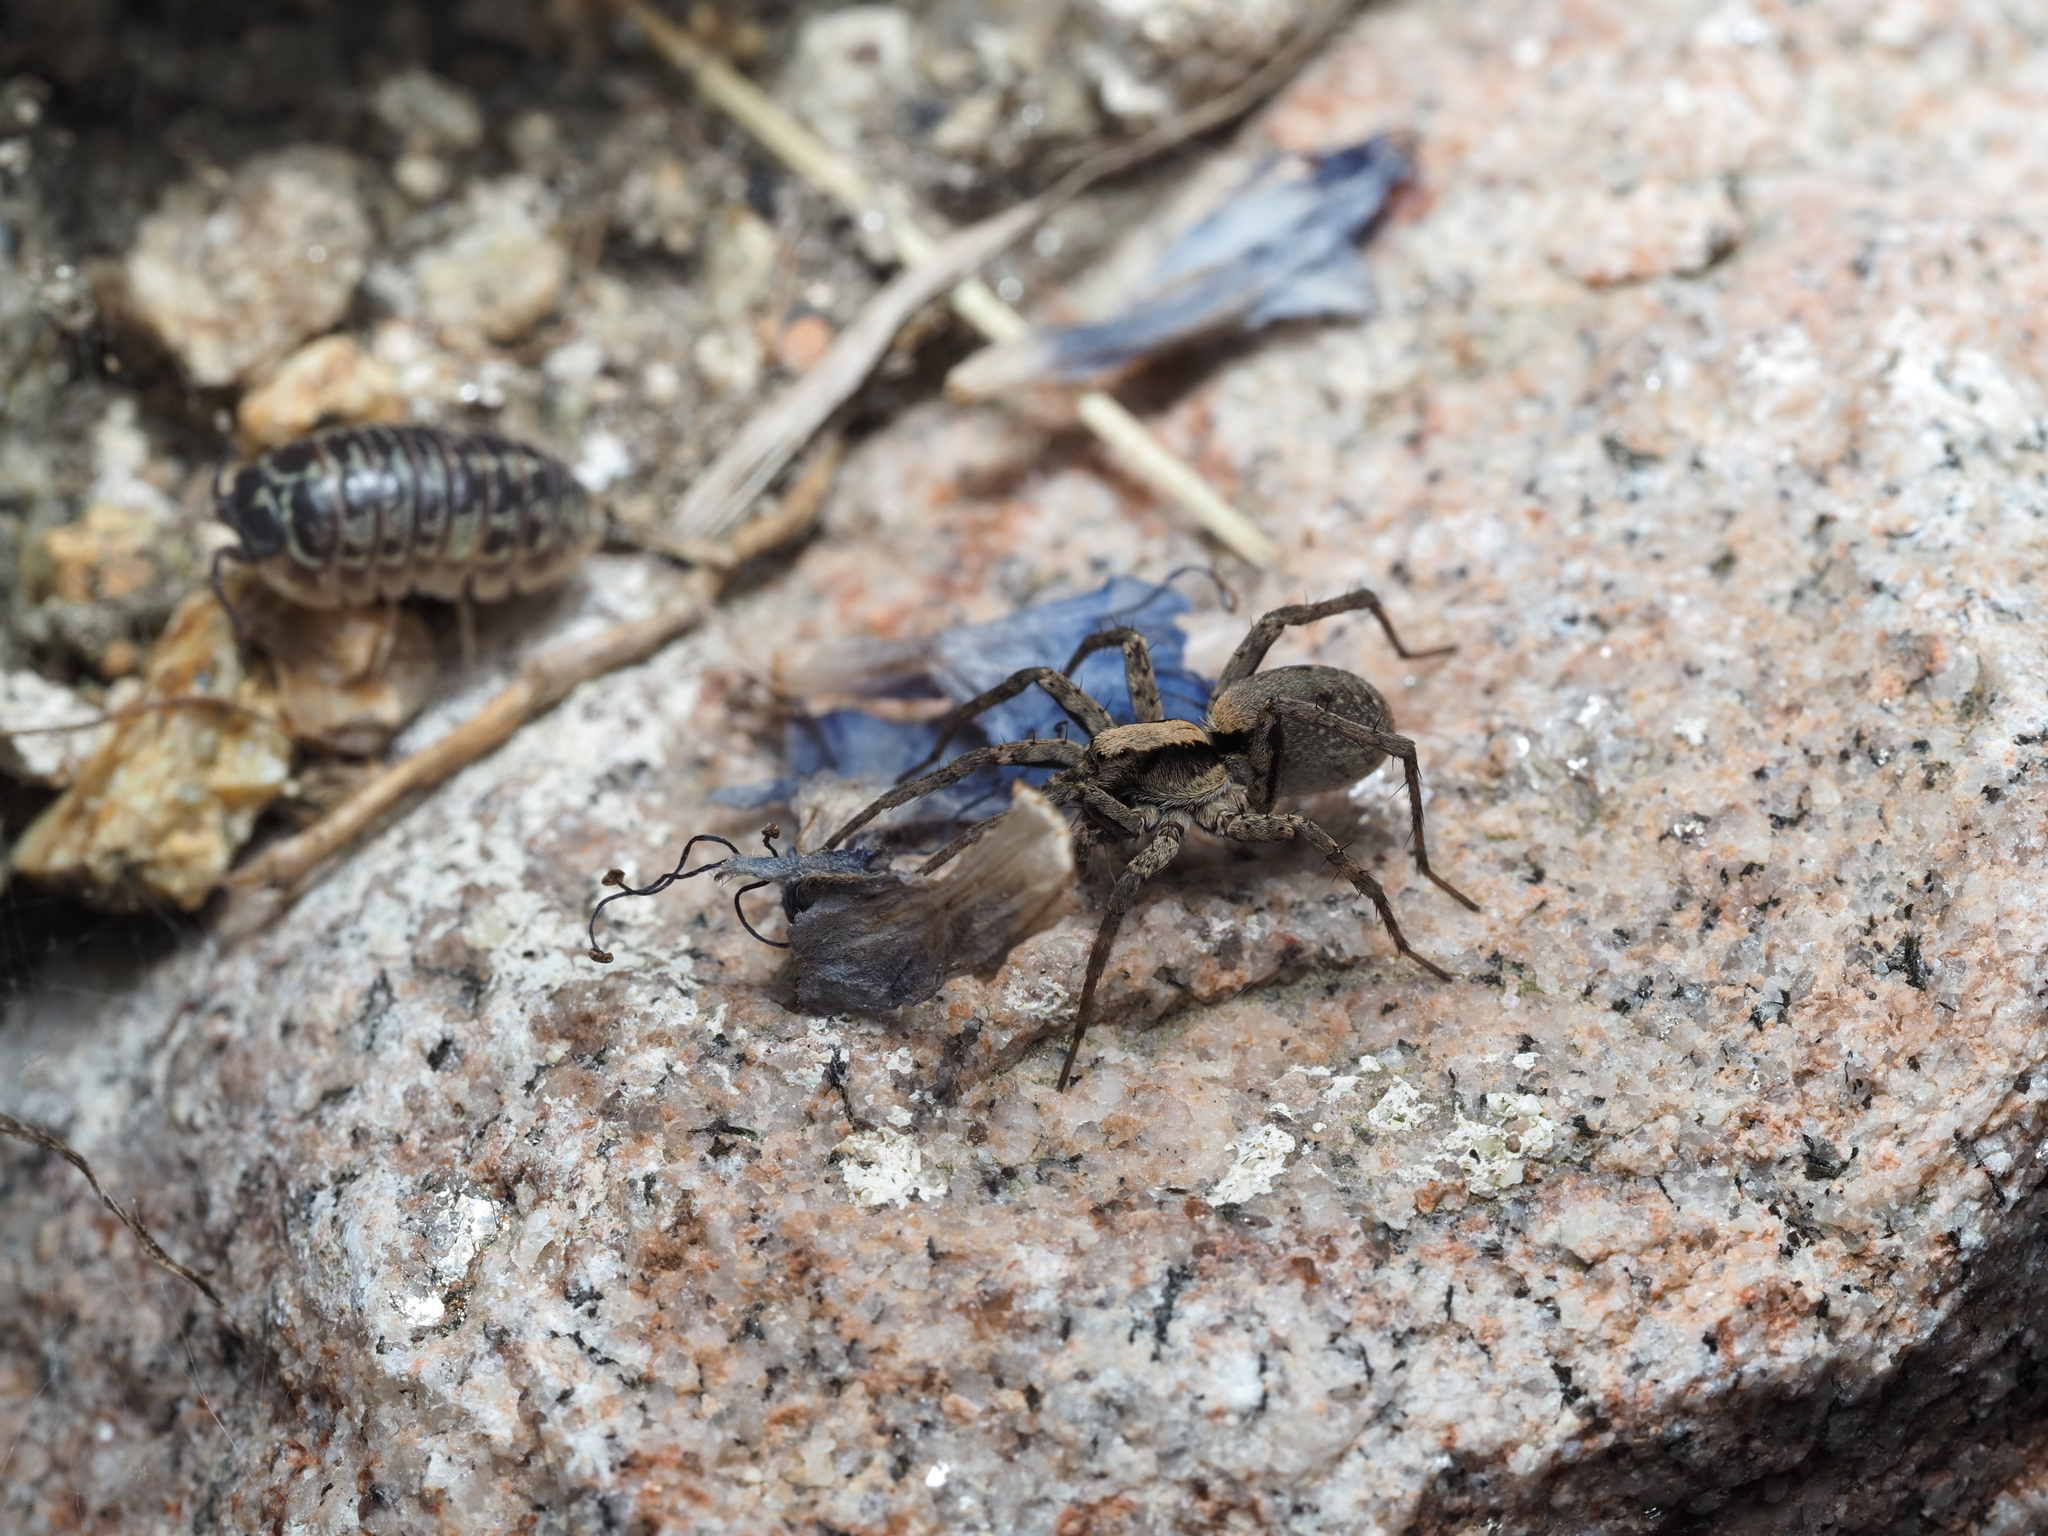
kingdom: Animalia
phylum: Arthropoda
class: Arachnida
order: Araneae
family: Lycosidae
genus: Xerolycosa
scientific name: Xerolycosa nemoralis
